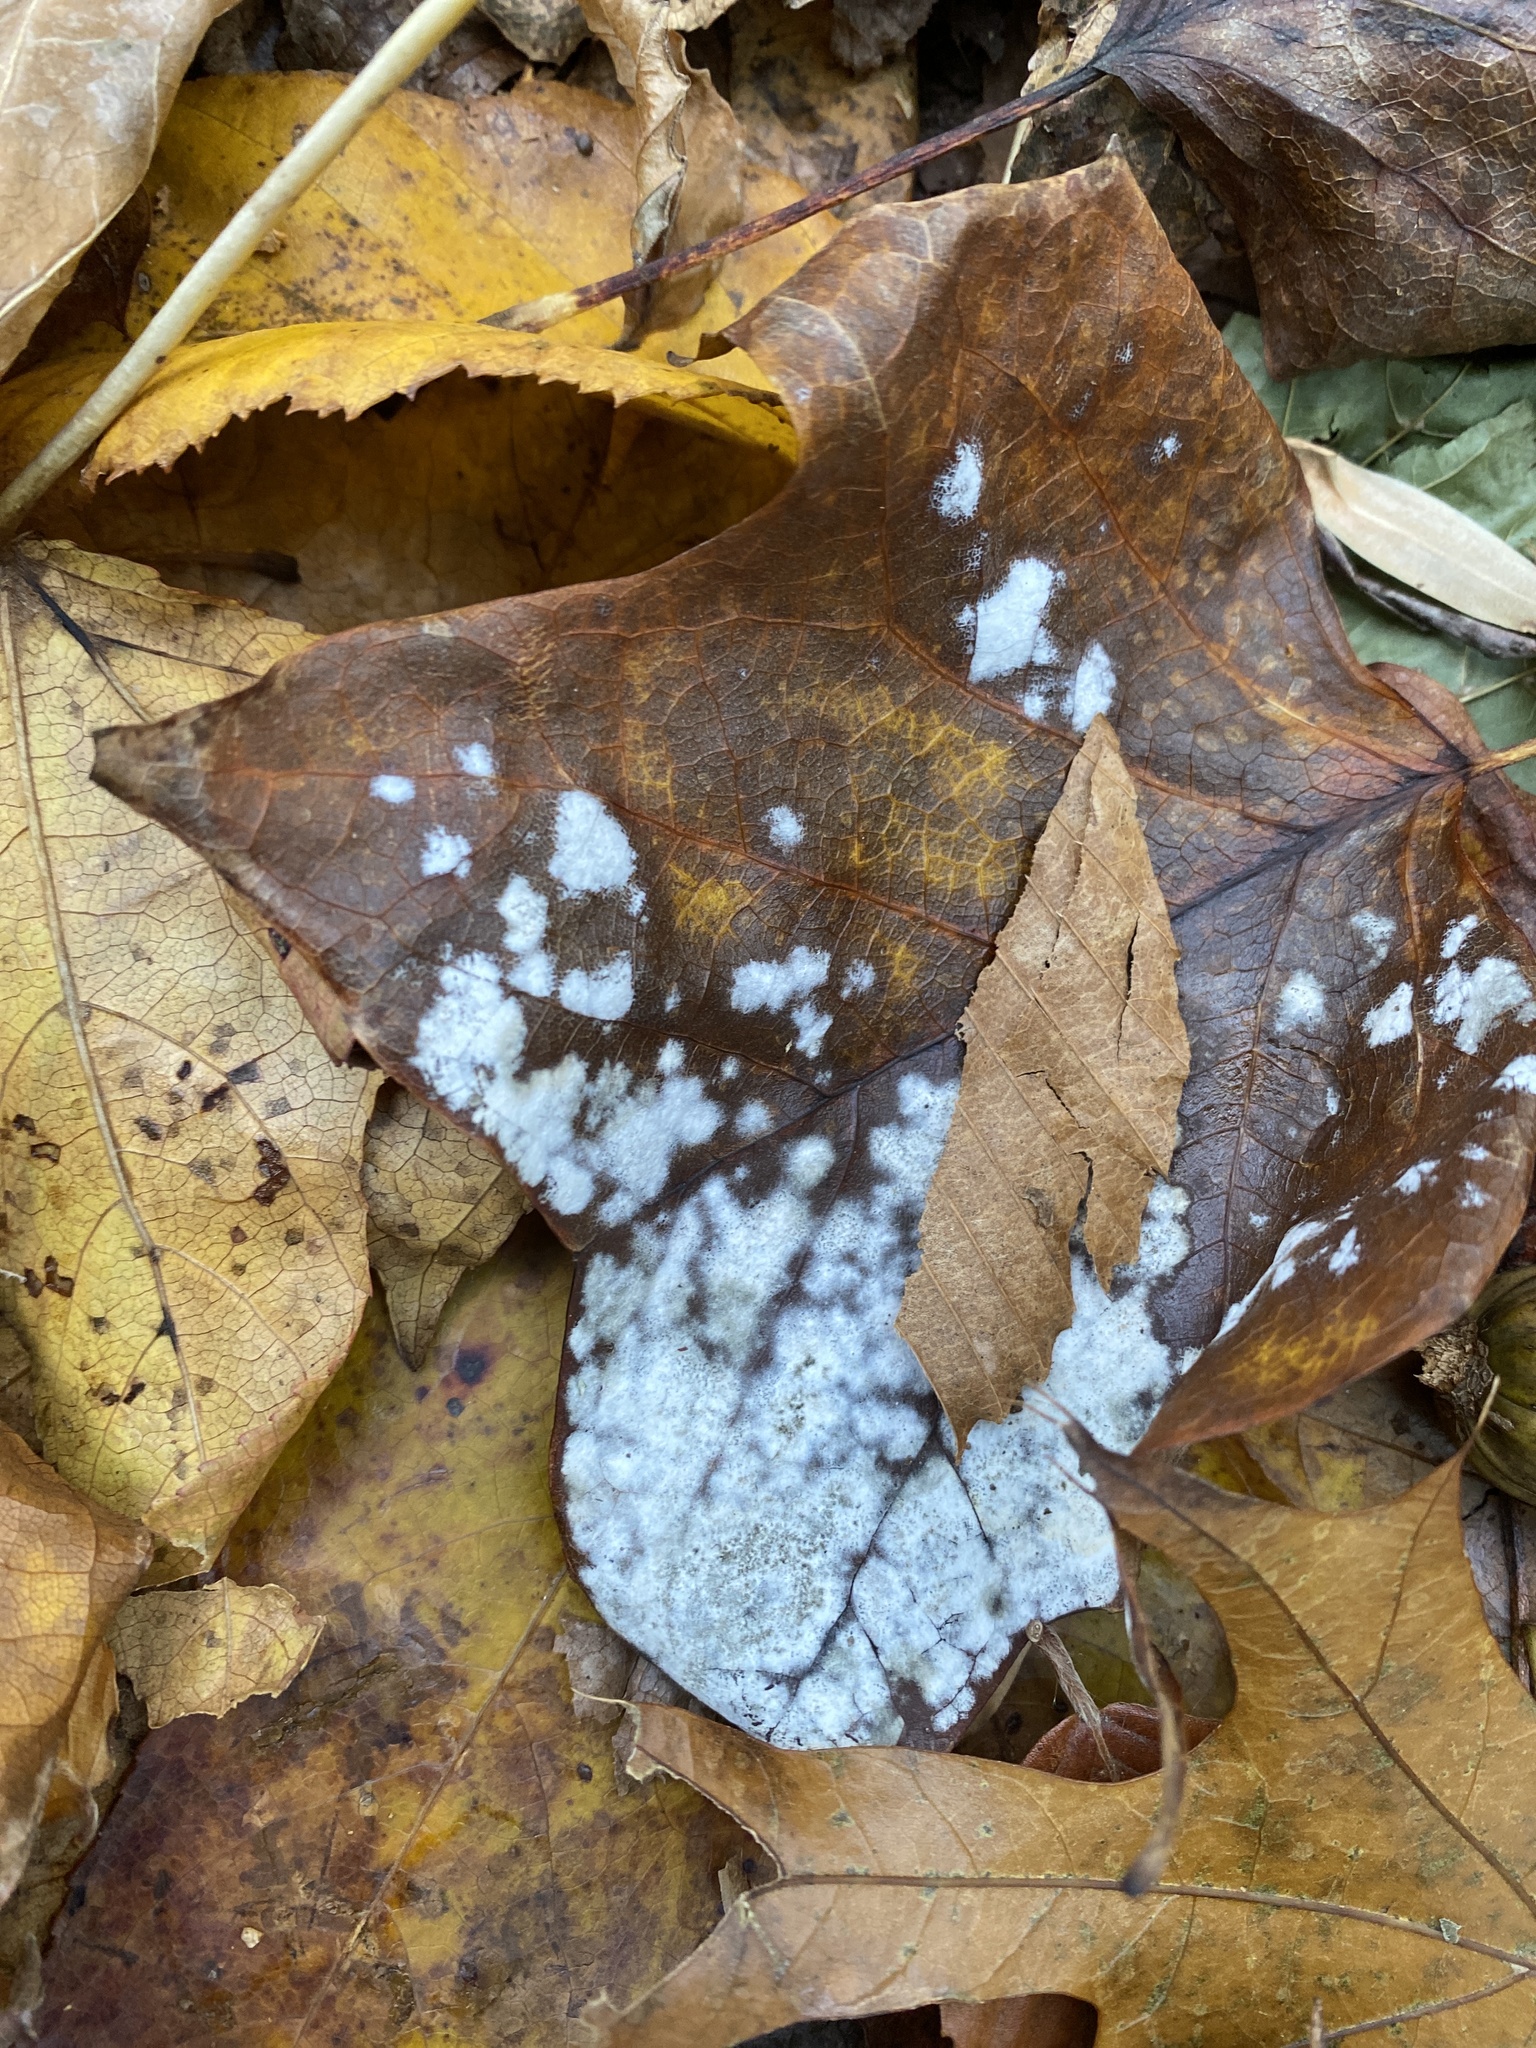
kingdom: Fungi
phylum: Ascomycota
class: Leotiomycetes
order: Helotiales
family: Erysiphaceae
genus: Erysiphe
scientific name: Erysiphe liriodendri
